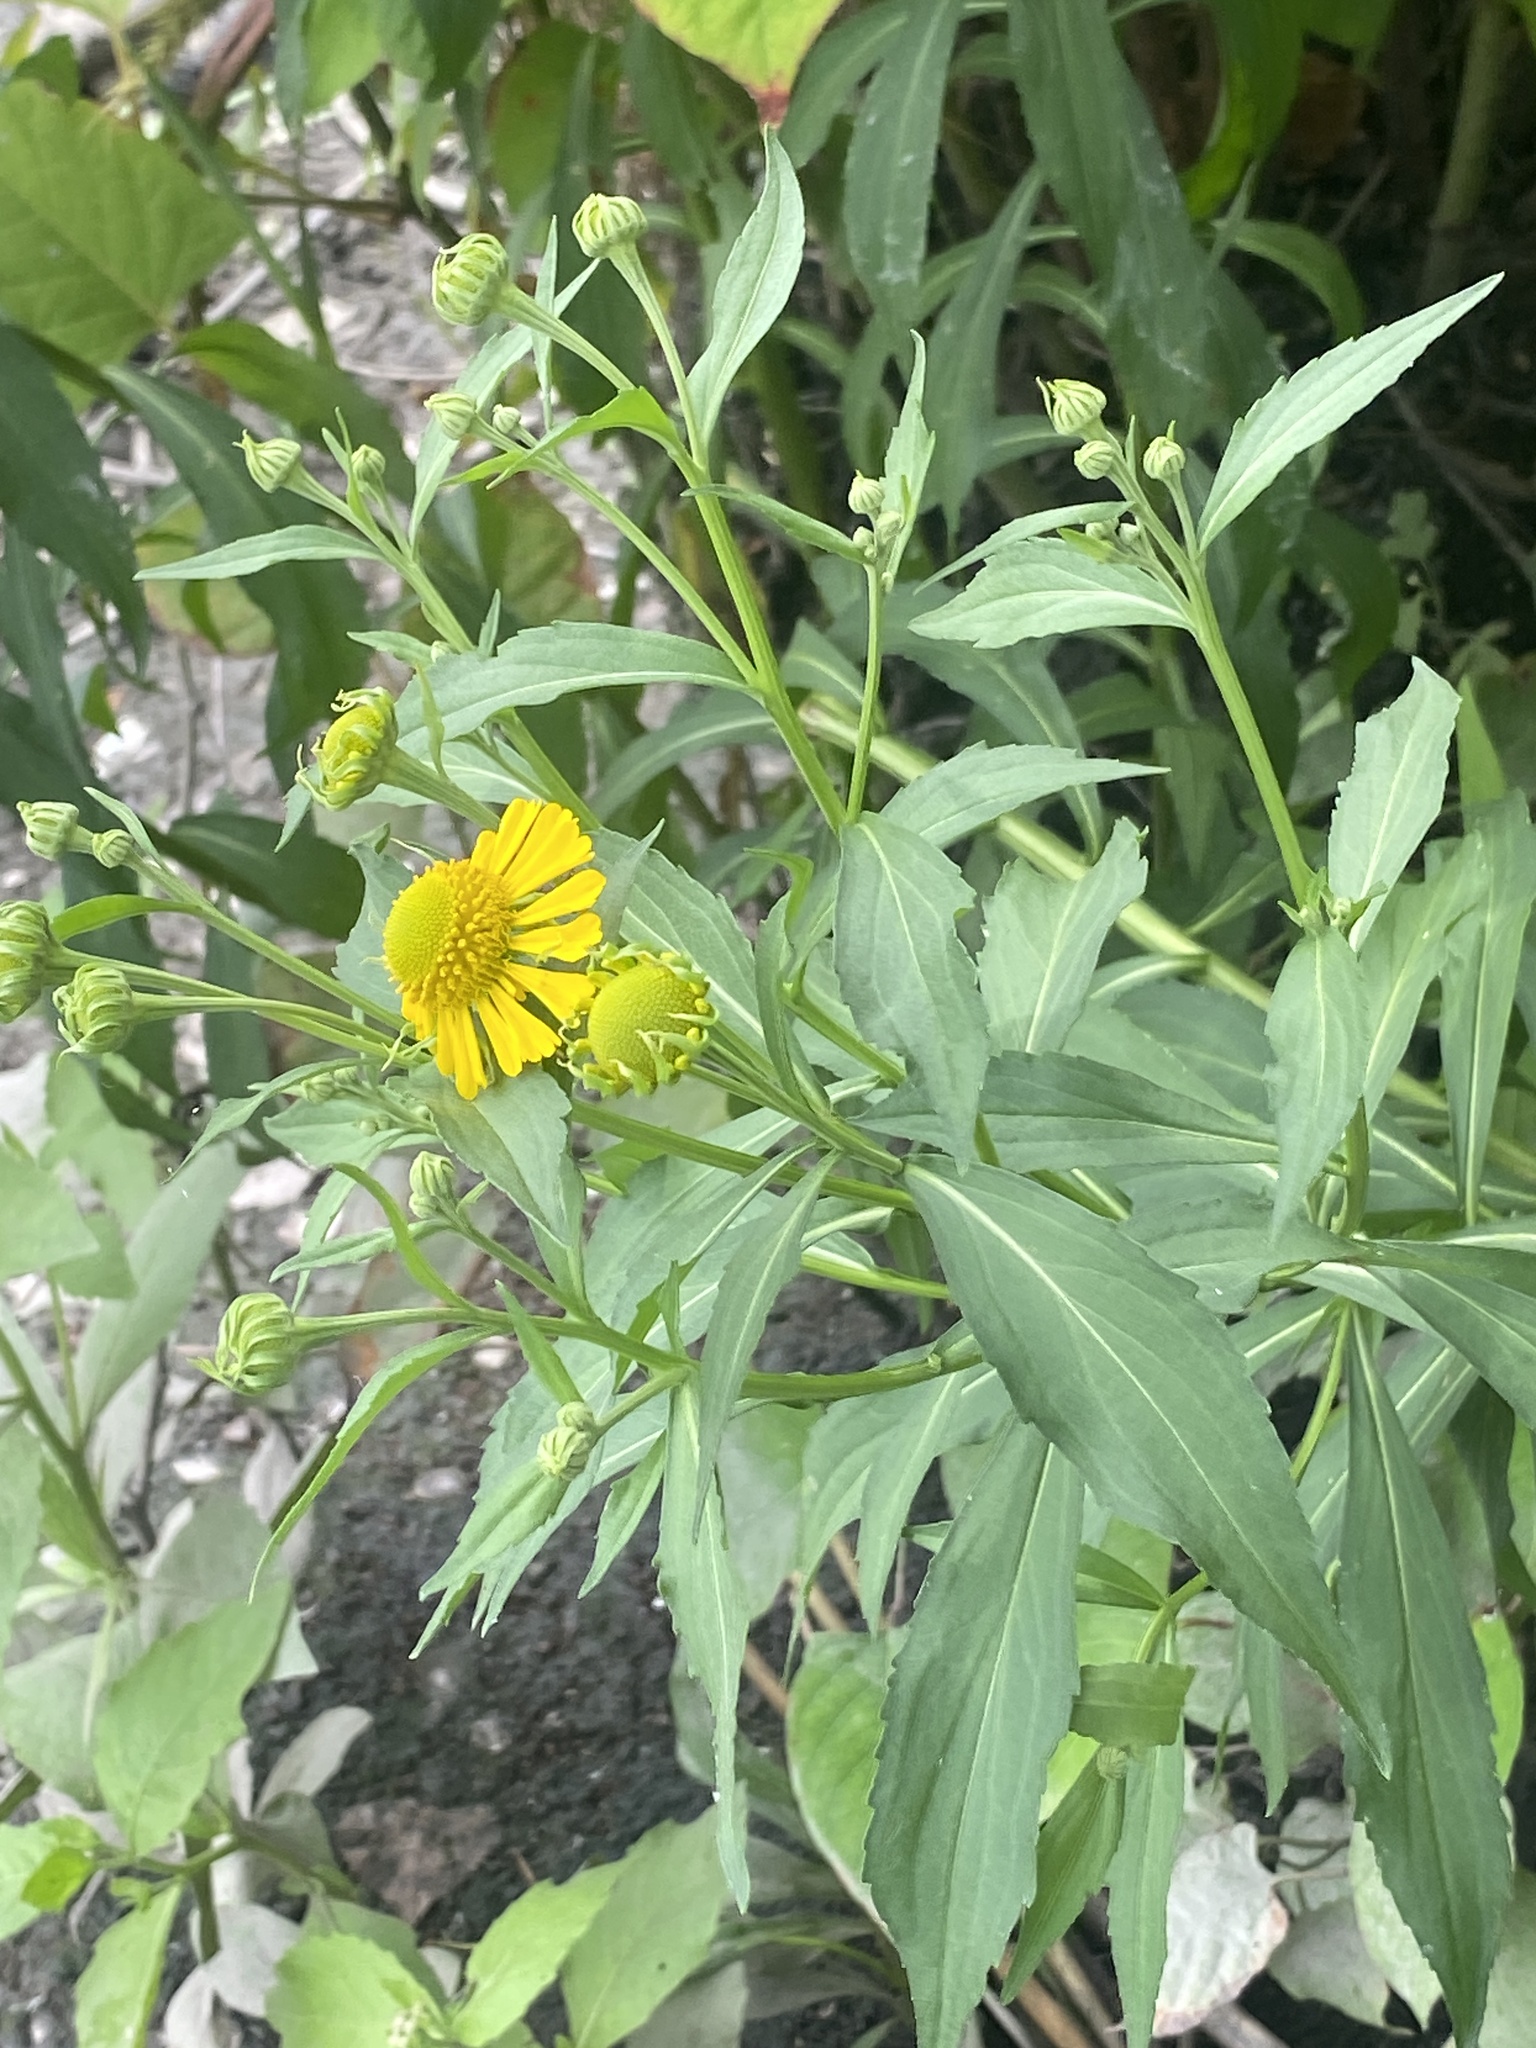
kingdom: Plantae
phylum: Tracheophyta
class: Magnoliopsida
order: Asterales
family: Asteraceae
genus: Helenium
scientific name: Helenium autumnale
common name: Sneezeweed
